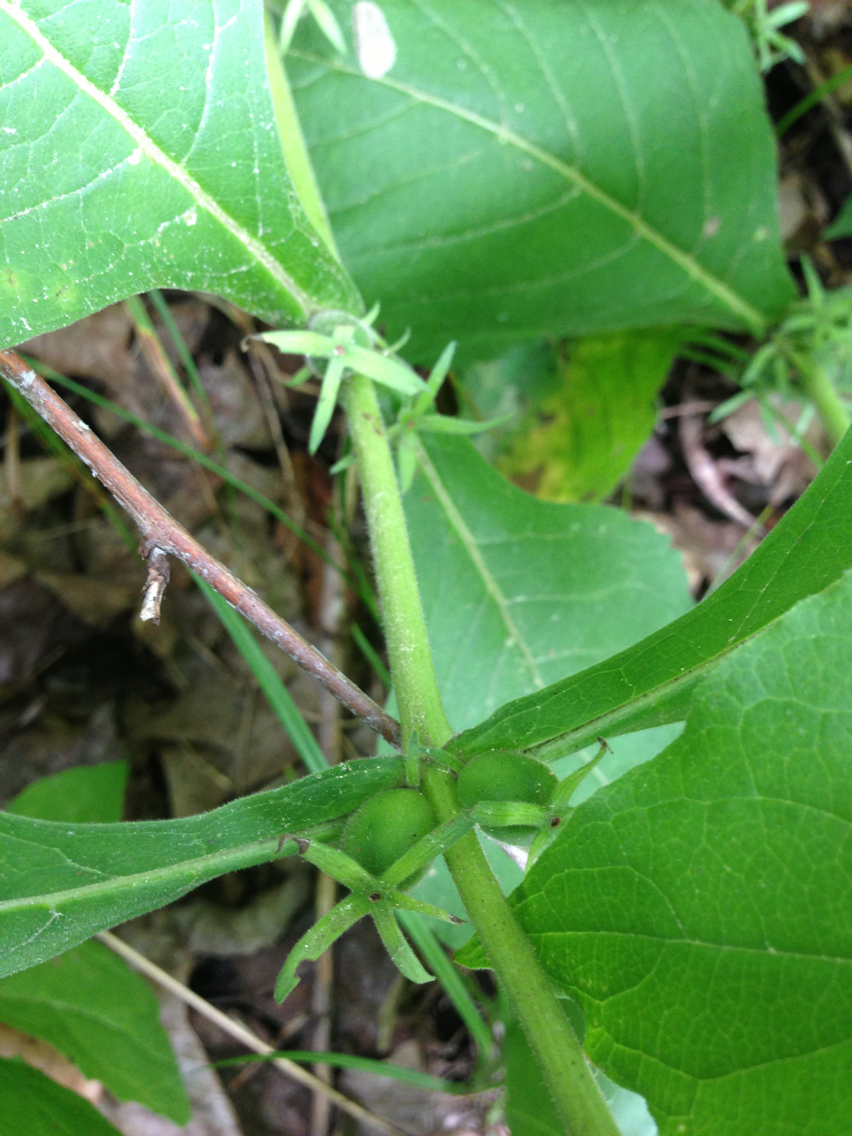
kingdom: Plantae
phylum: Tracheophyta
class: Magnoliopsida
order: Dipsacales
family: Caprifoliaceae
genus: Triosteum
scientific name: Triosteum aurantiacum
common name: Coffee tinker's-weed
